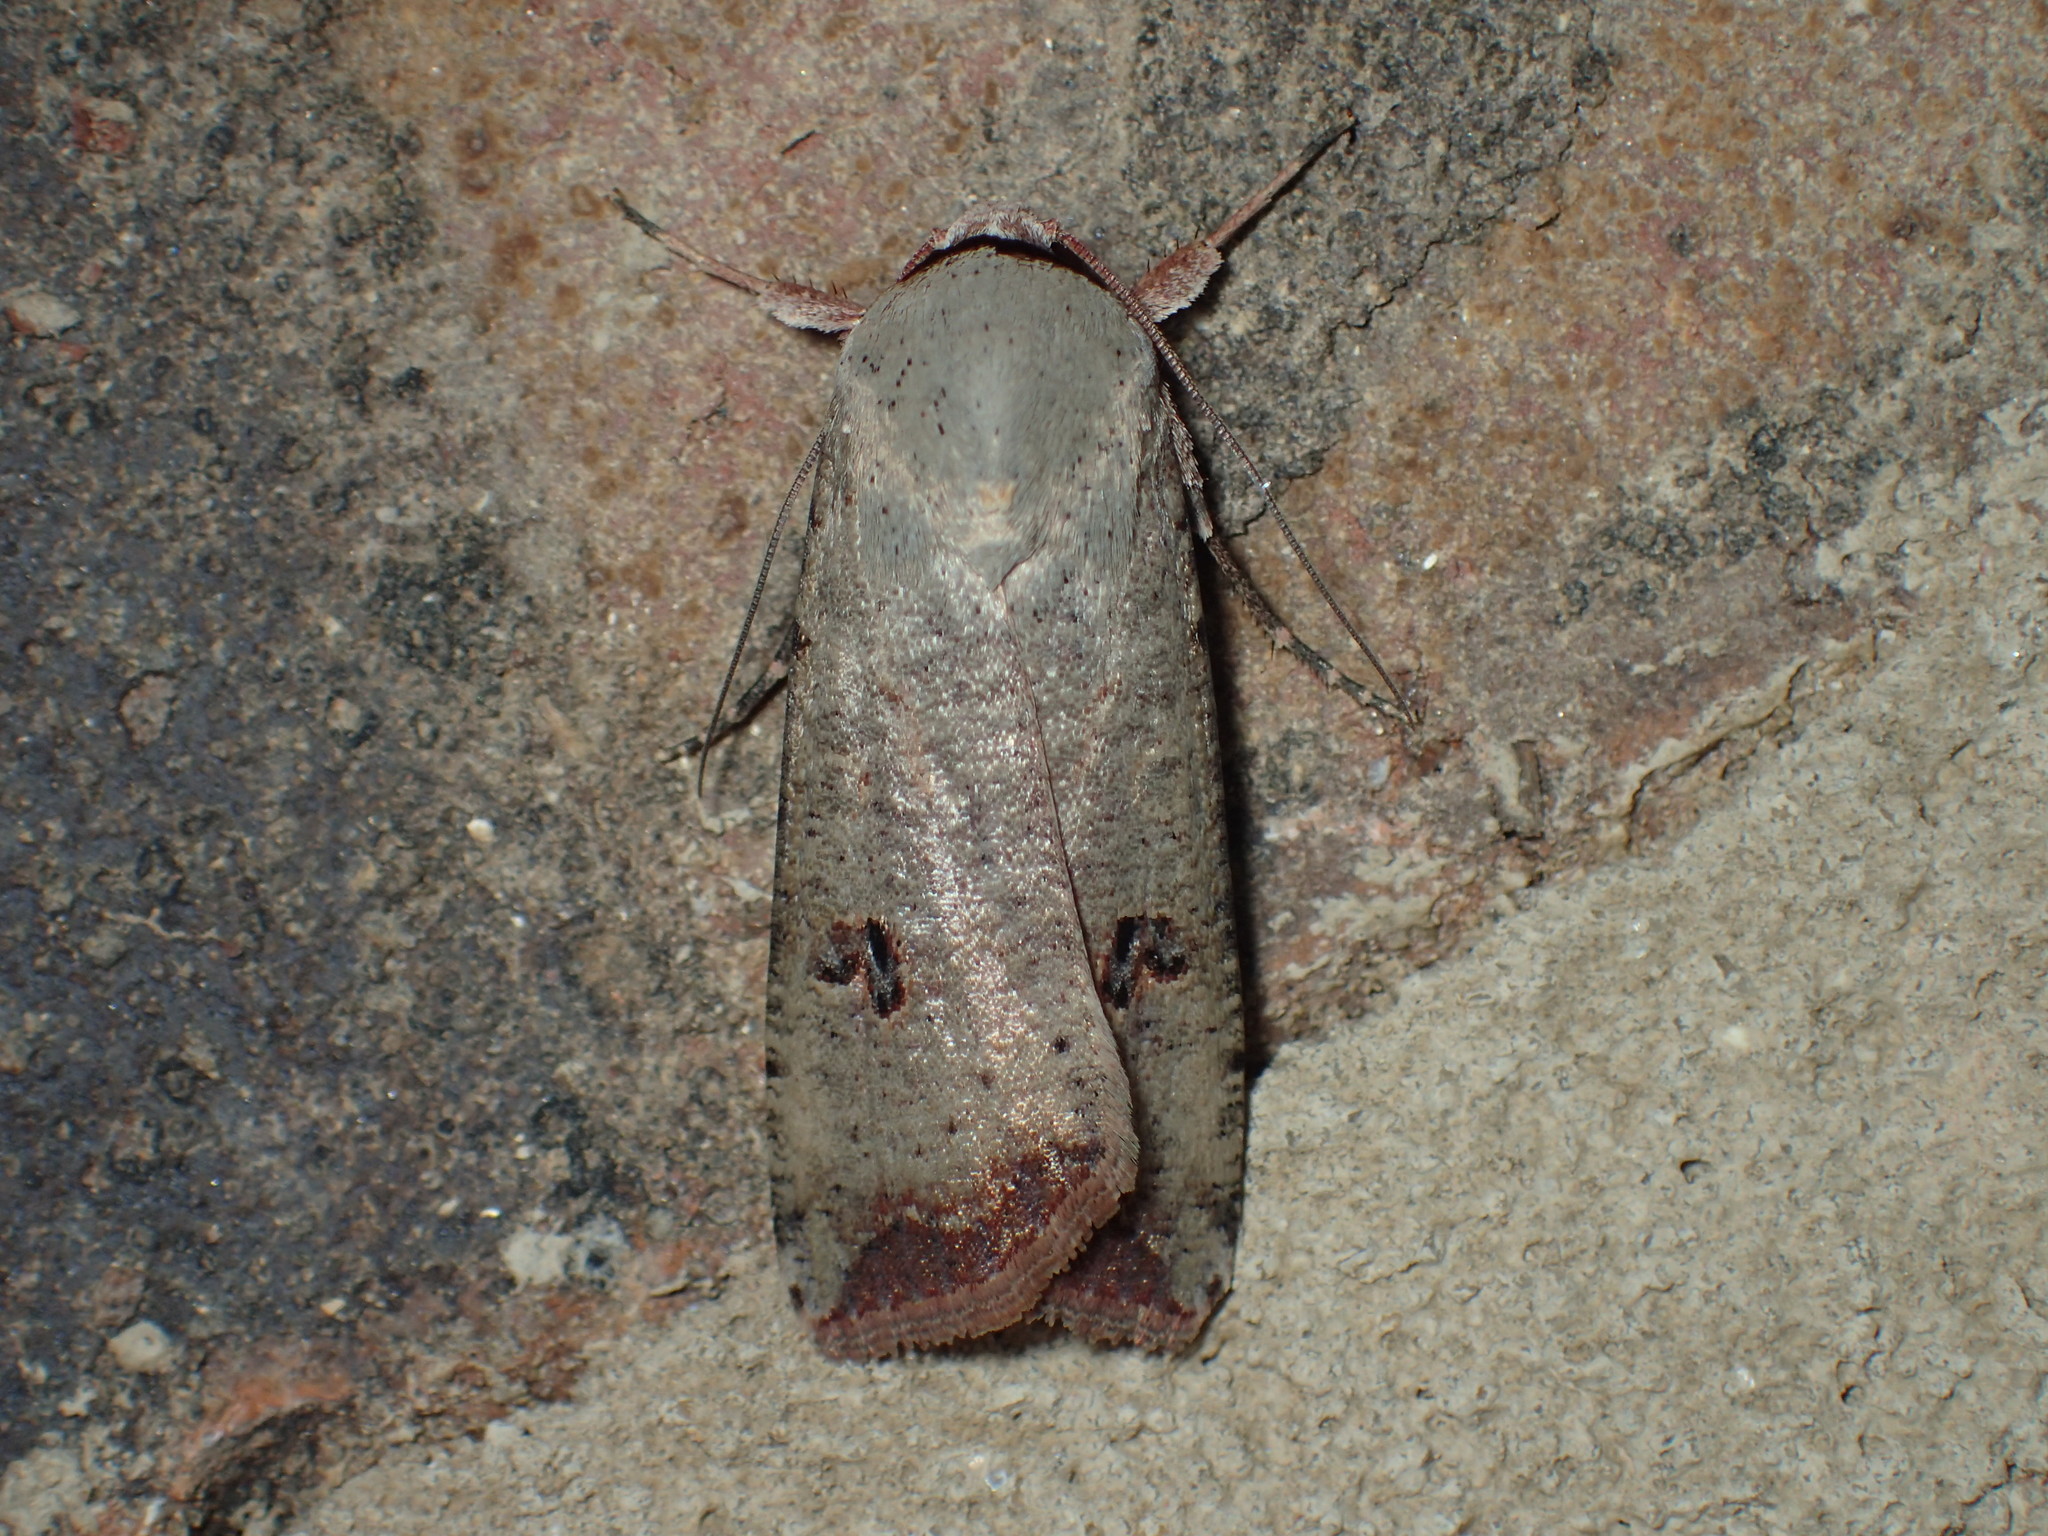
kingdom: Animalia
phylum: Arthropoda
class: Insecta
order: Lepidoptera
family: Noctuidae
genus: Anicla
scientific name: Anicla infecta
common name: Green cutworm
